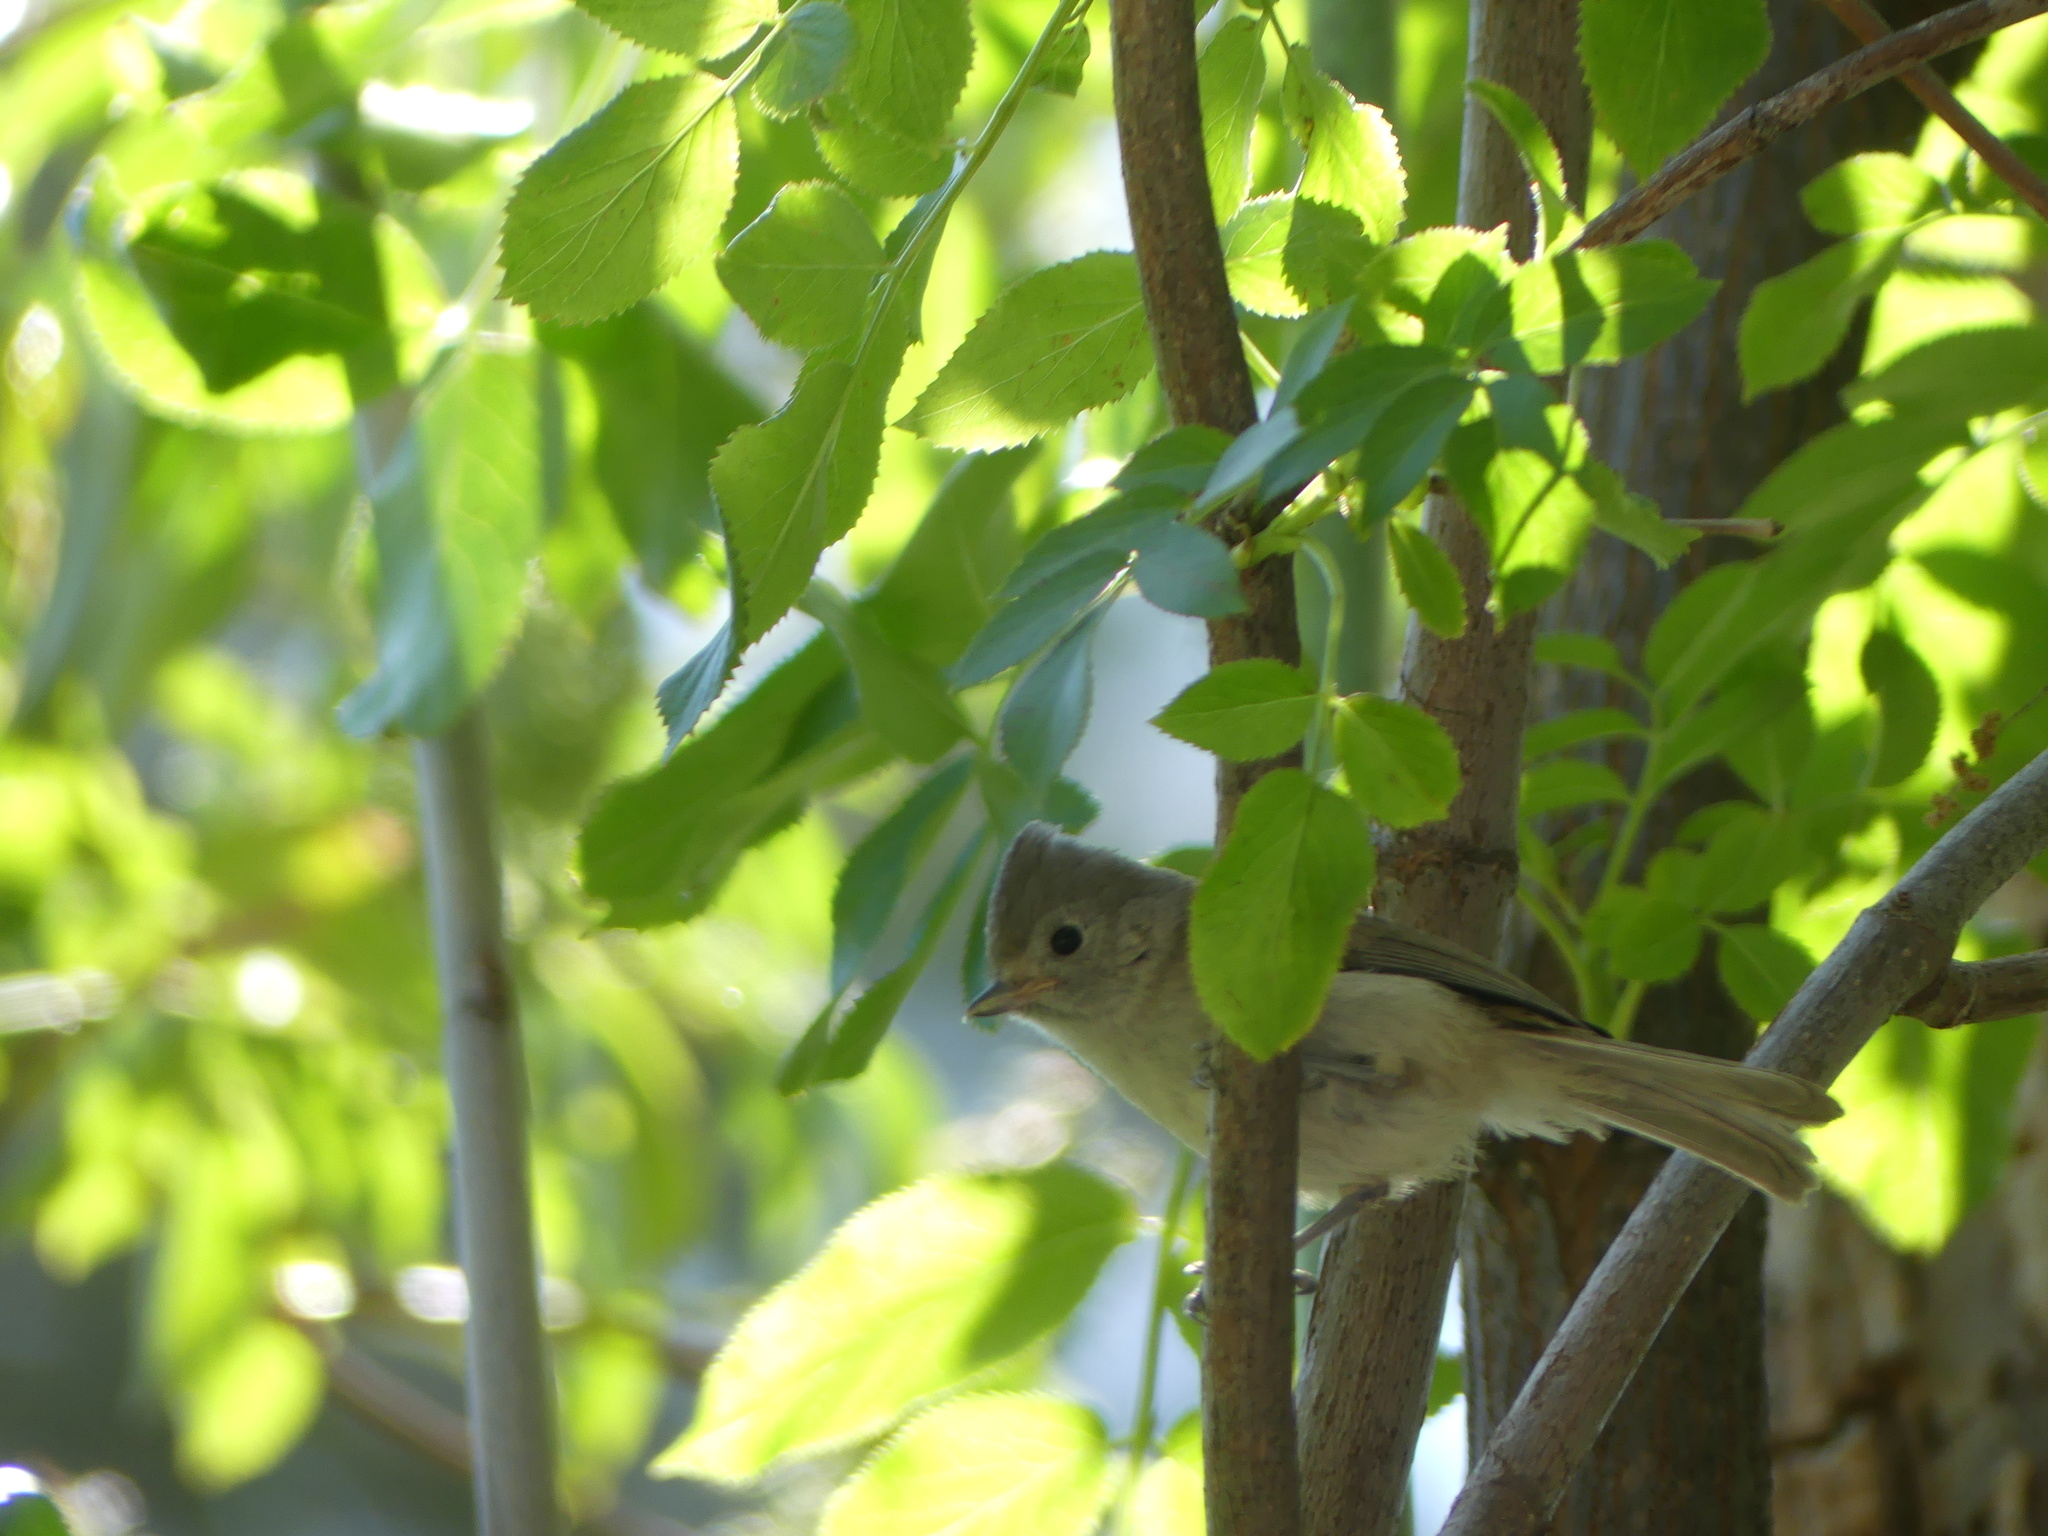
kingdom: Animalia
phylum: Chordata
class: Aves
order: Passeriformes
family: Paridae
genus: Baeolophus
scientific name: Baeolophus inornatus
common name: Oak titmouse
